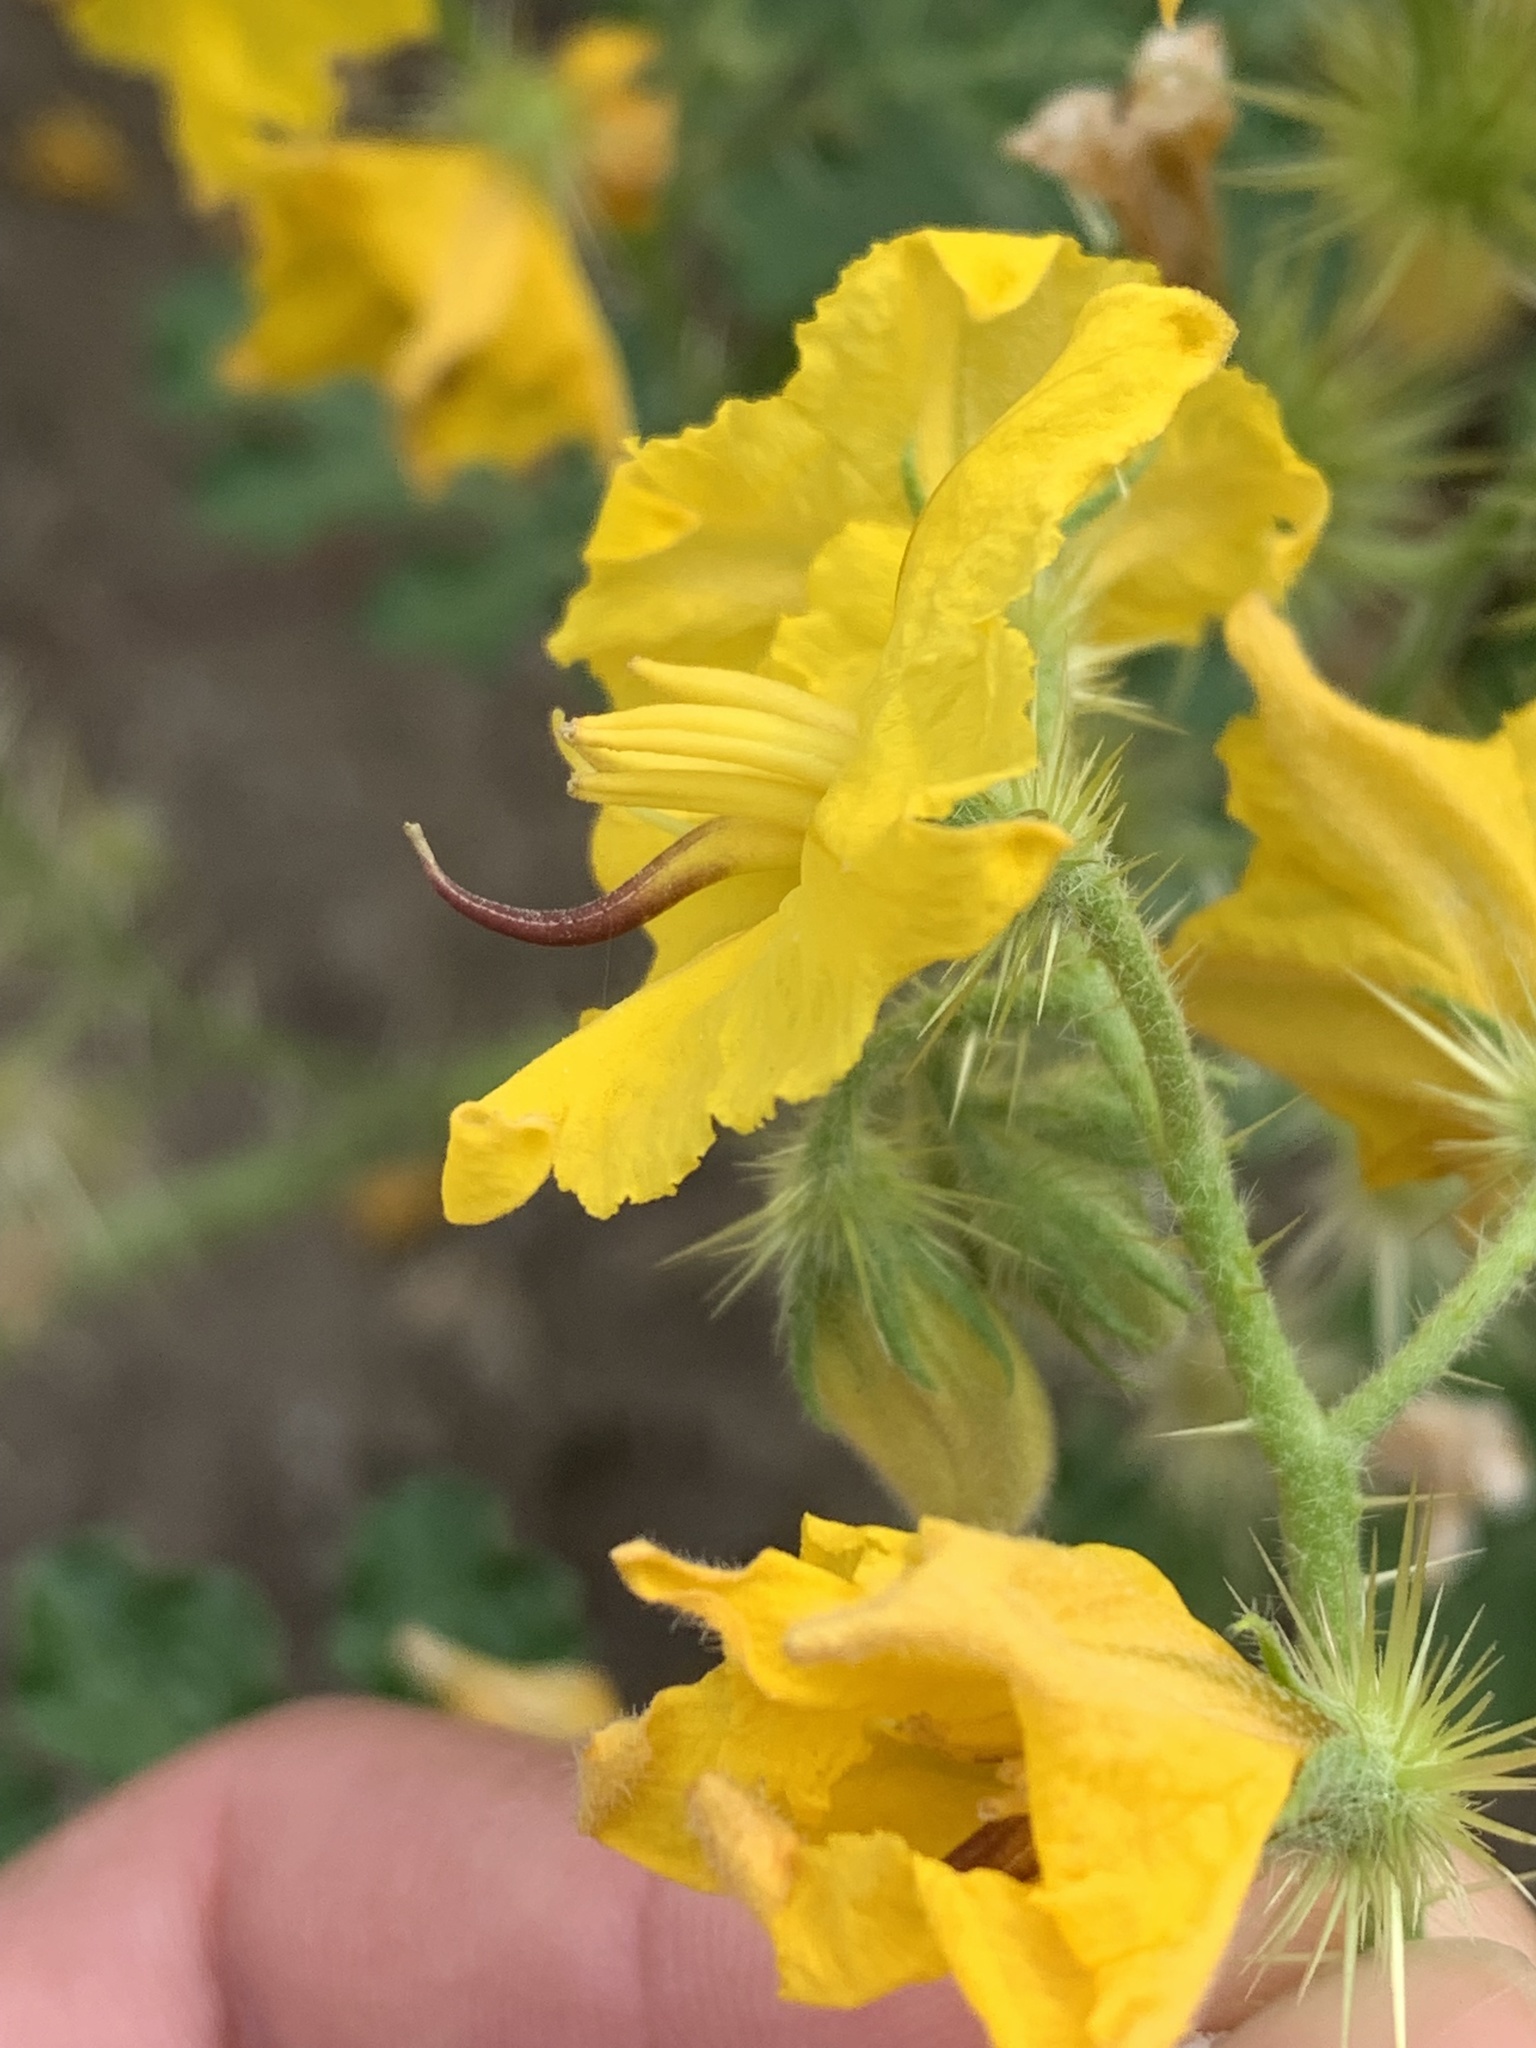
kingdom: Plantae
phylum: Tracheophyta
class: Magnoliopsida
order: Solanales
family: Solanaceae
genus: Solanum
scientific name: Solanum angustifolium
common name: Buffalobur nightshade
